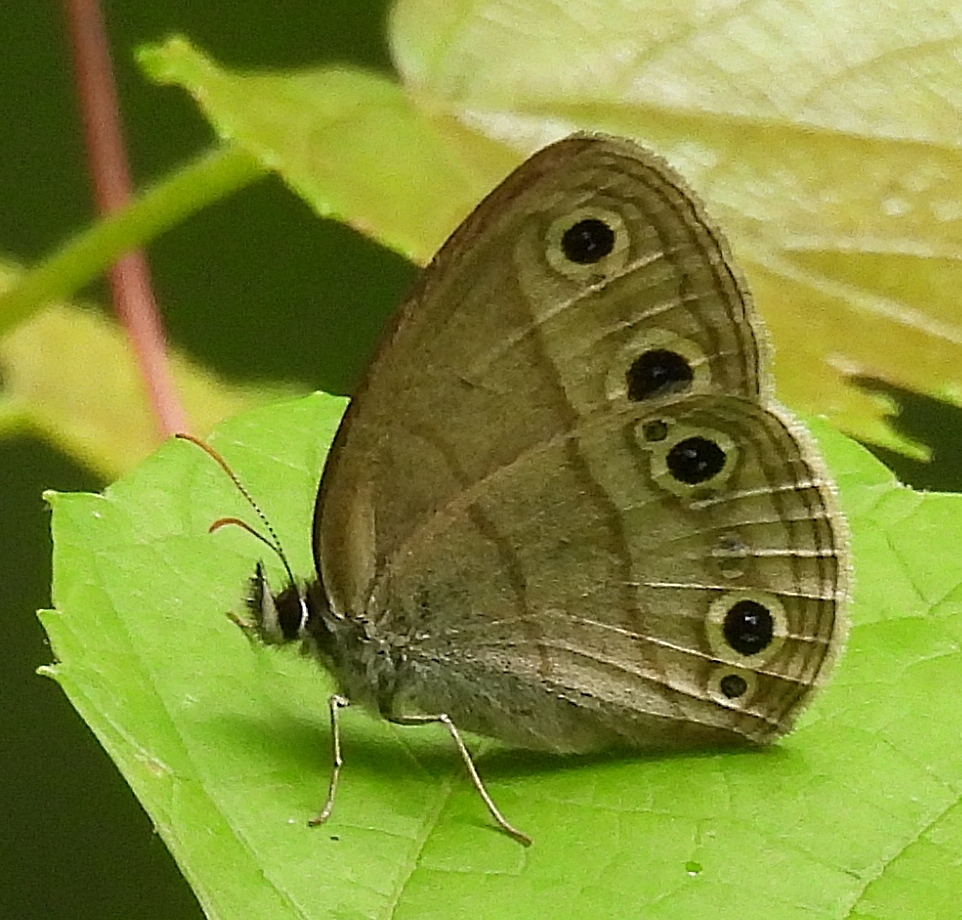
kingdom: Animalia
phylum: Arthropoda
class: Insecta
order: Lepidoptera
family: Nymphalidae
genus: Euptychia
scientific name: Euptychia cymela
